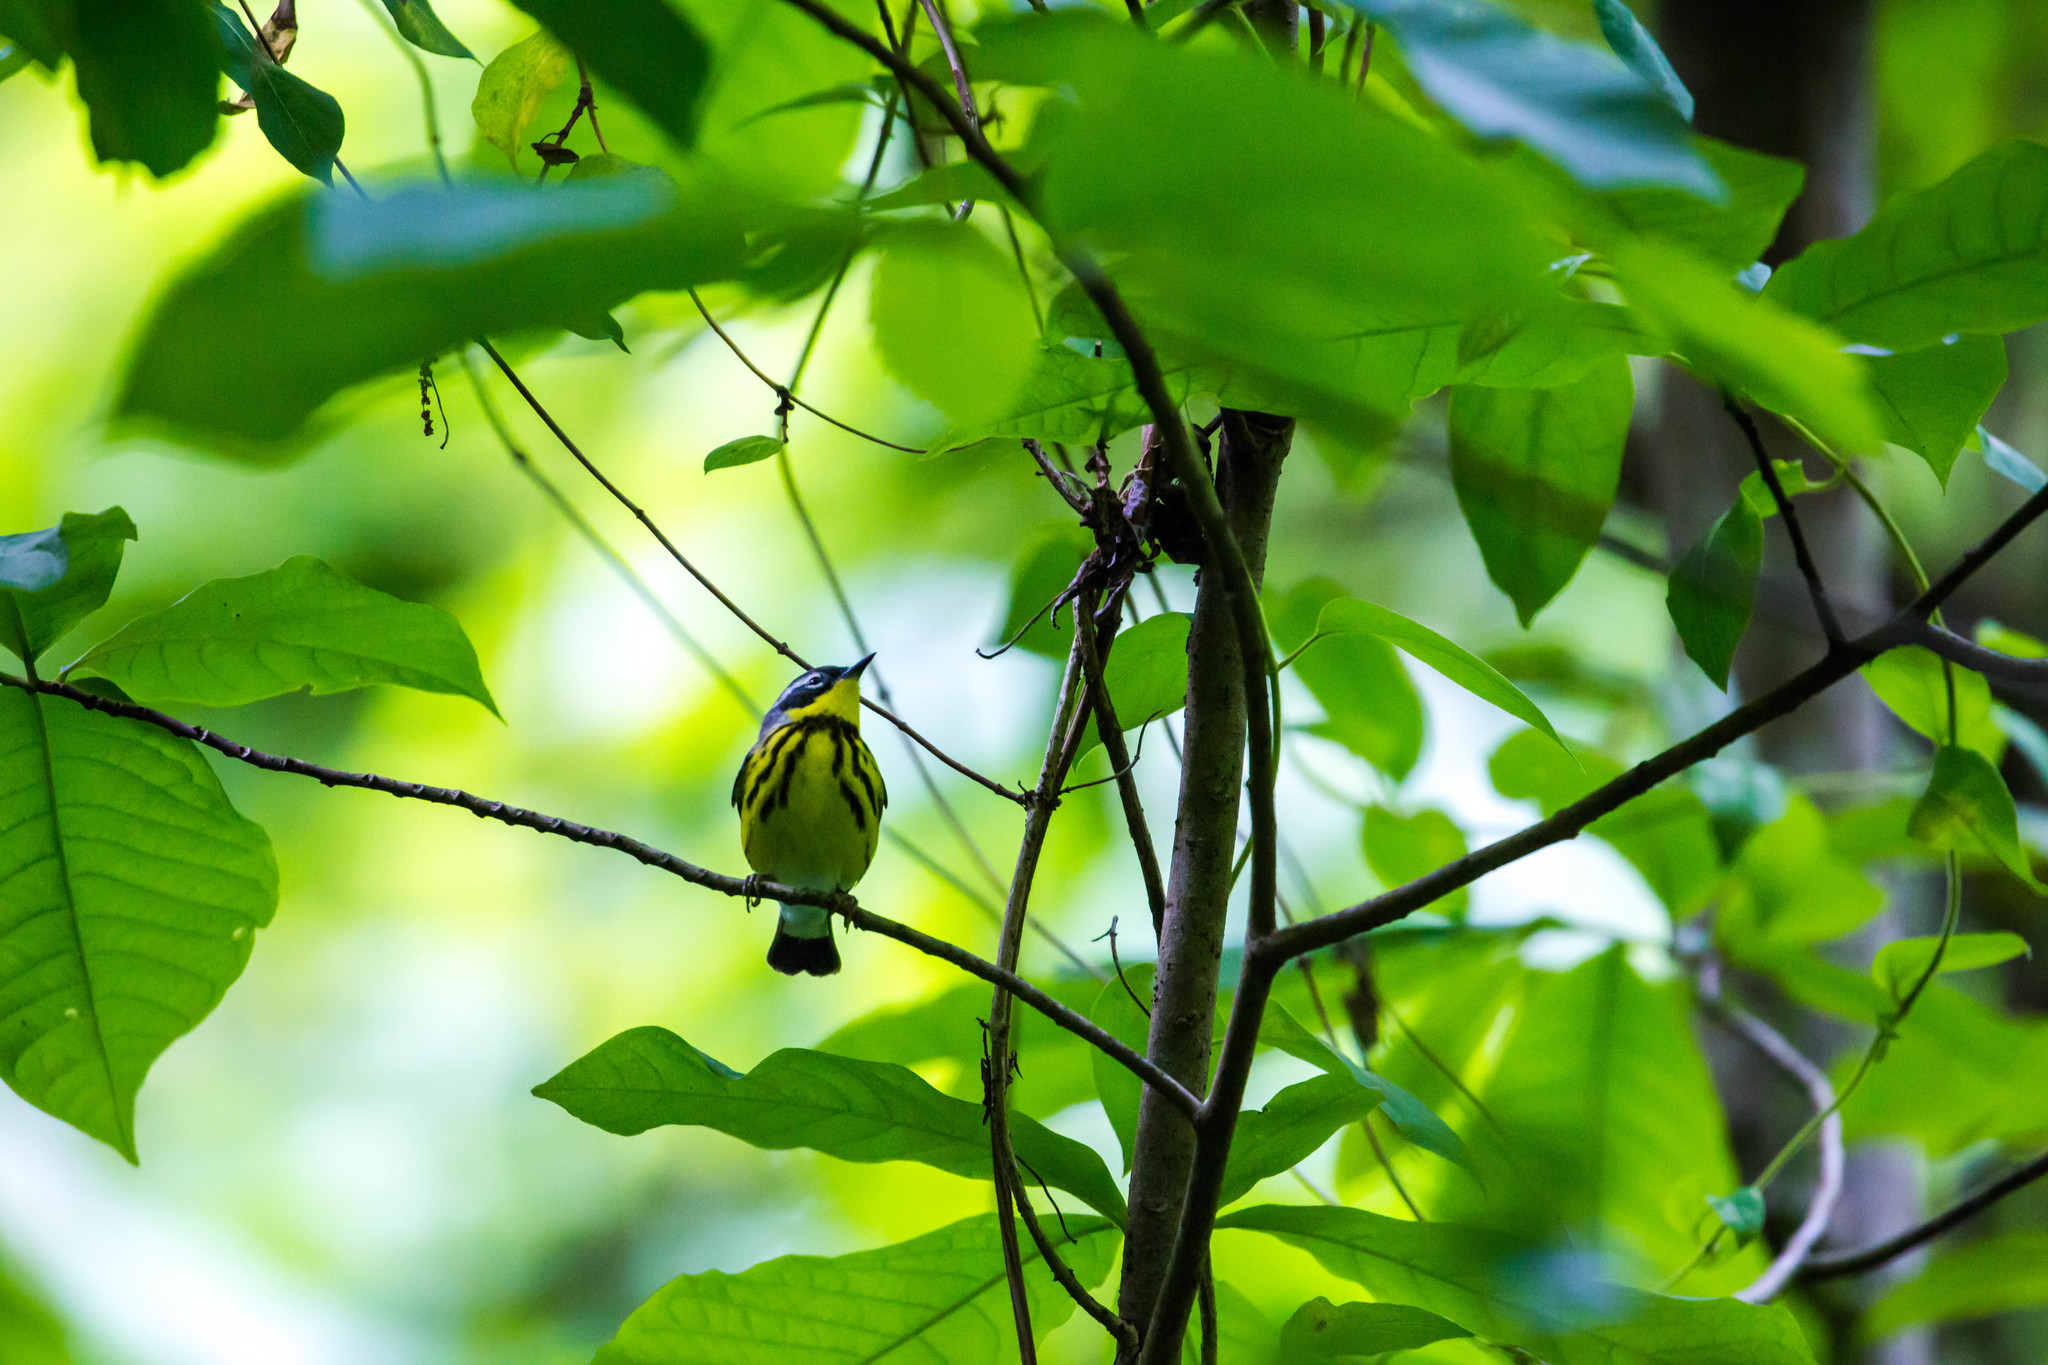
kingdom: Animalia
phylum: Chordata
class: Aves
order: Passeriformes
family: Parulidae
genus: Setophaga
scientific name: Setophaga magnolia
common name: Magnolia warbler
